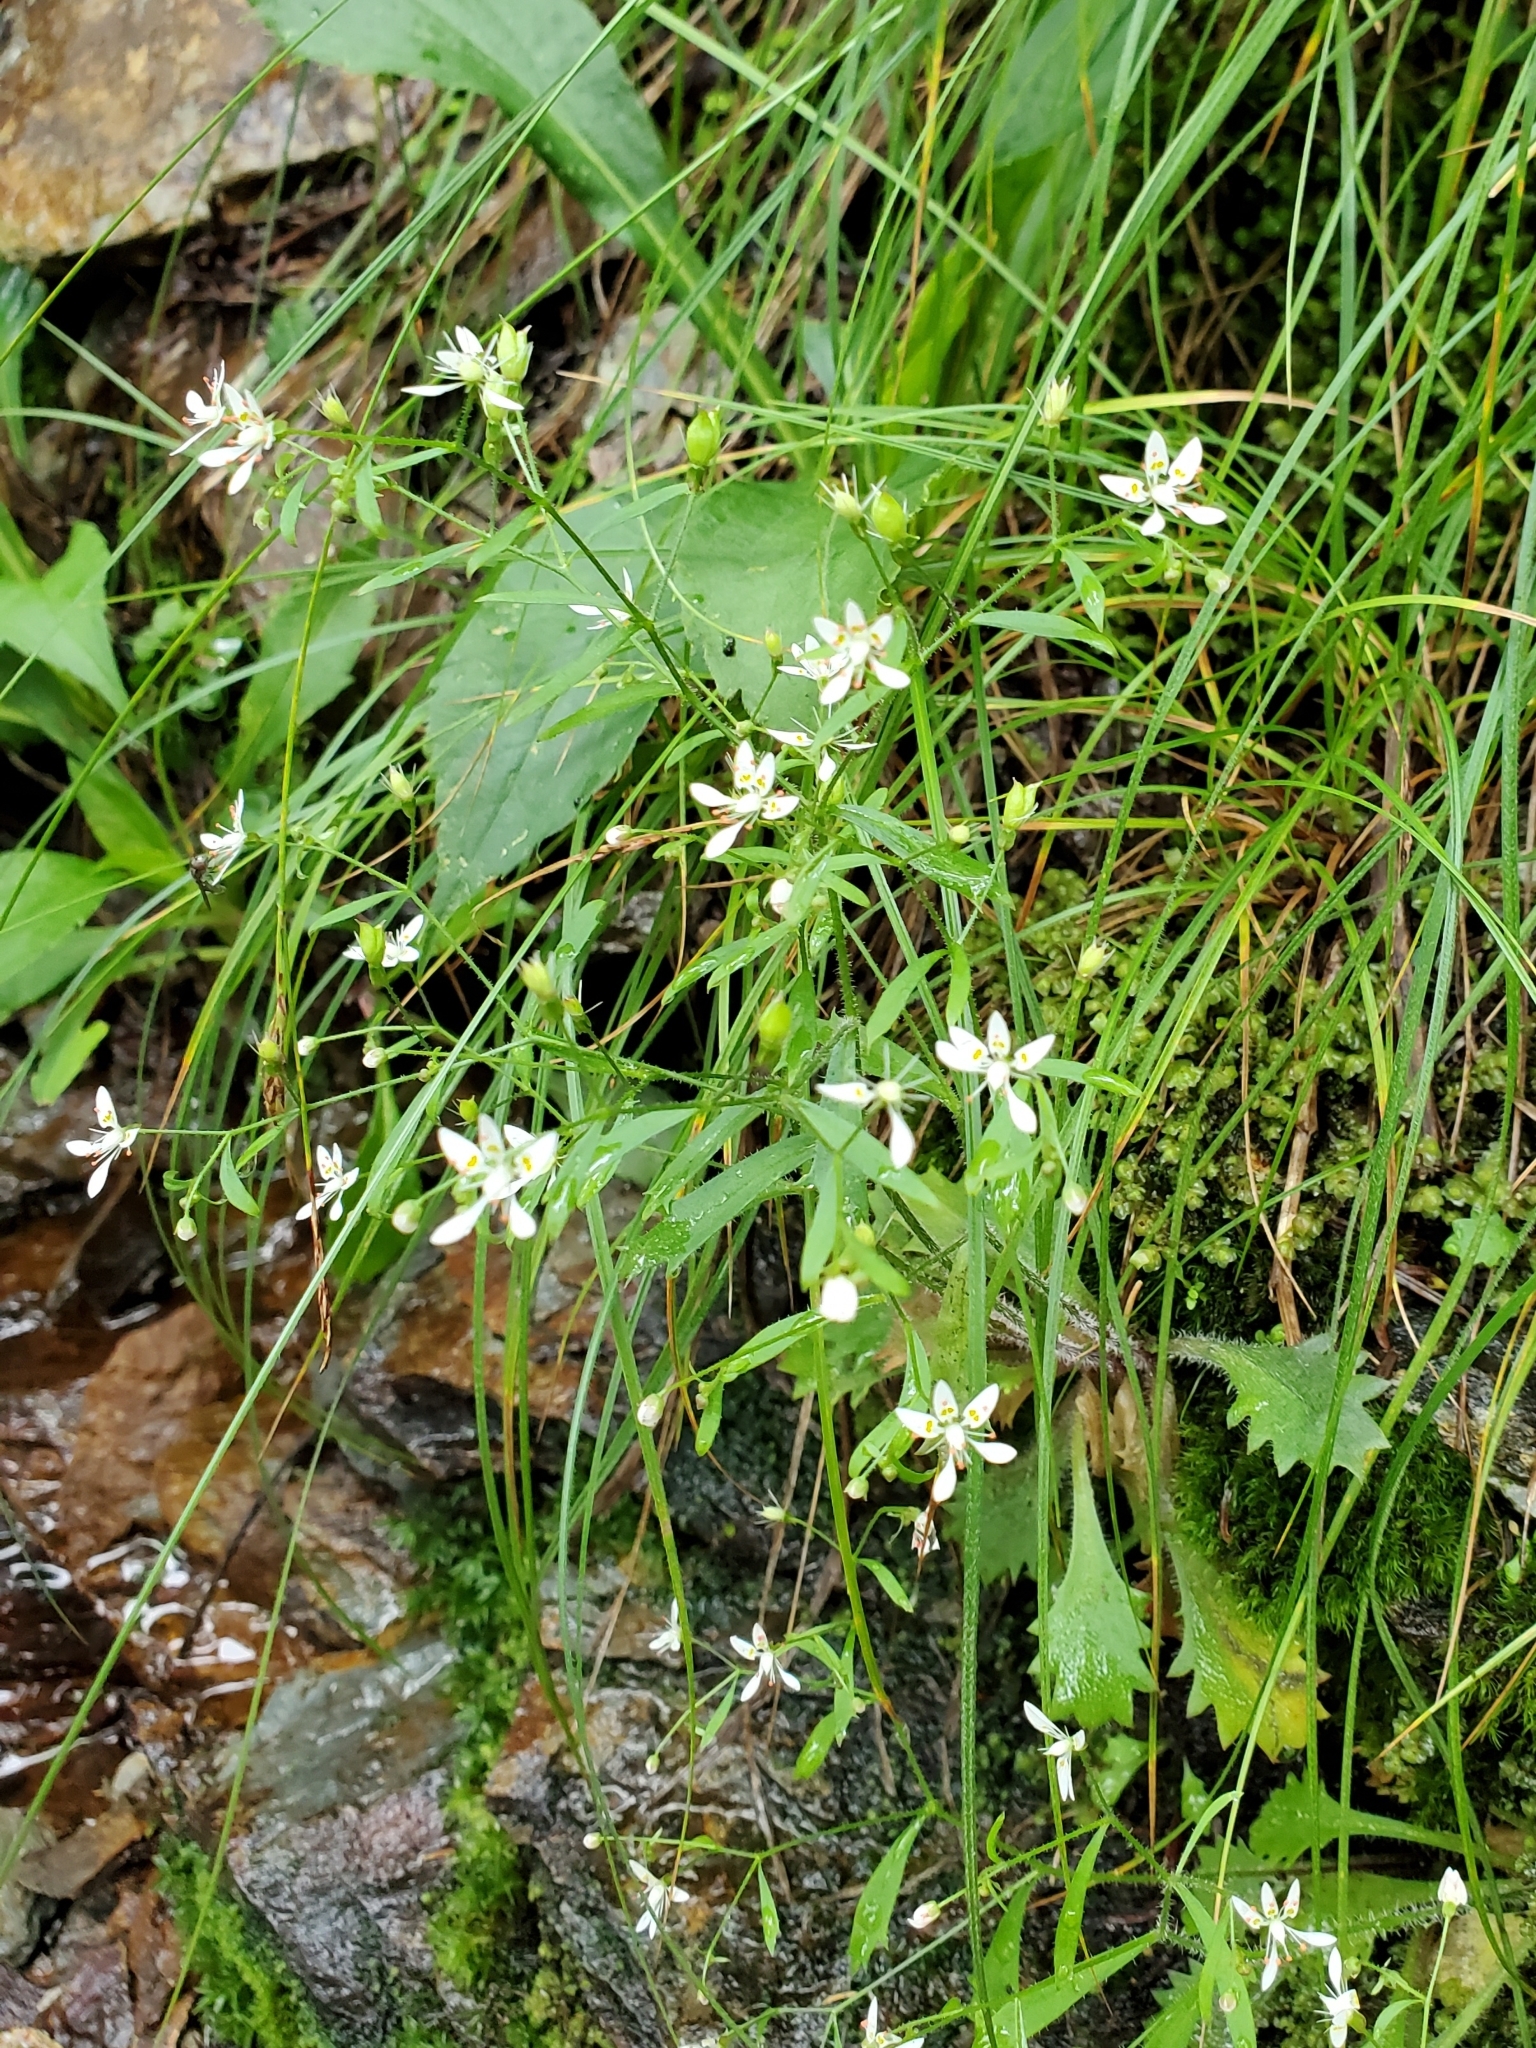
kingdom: Plantae
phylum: Tracheophyta
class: Magnoliopsida
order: Saxifragales
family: Saxifragaceae
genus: Micranthes
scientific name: Micranthes petiolaris
